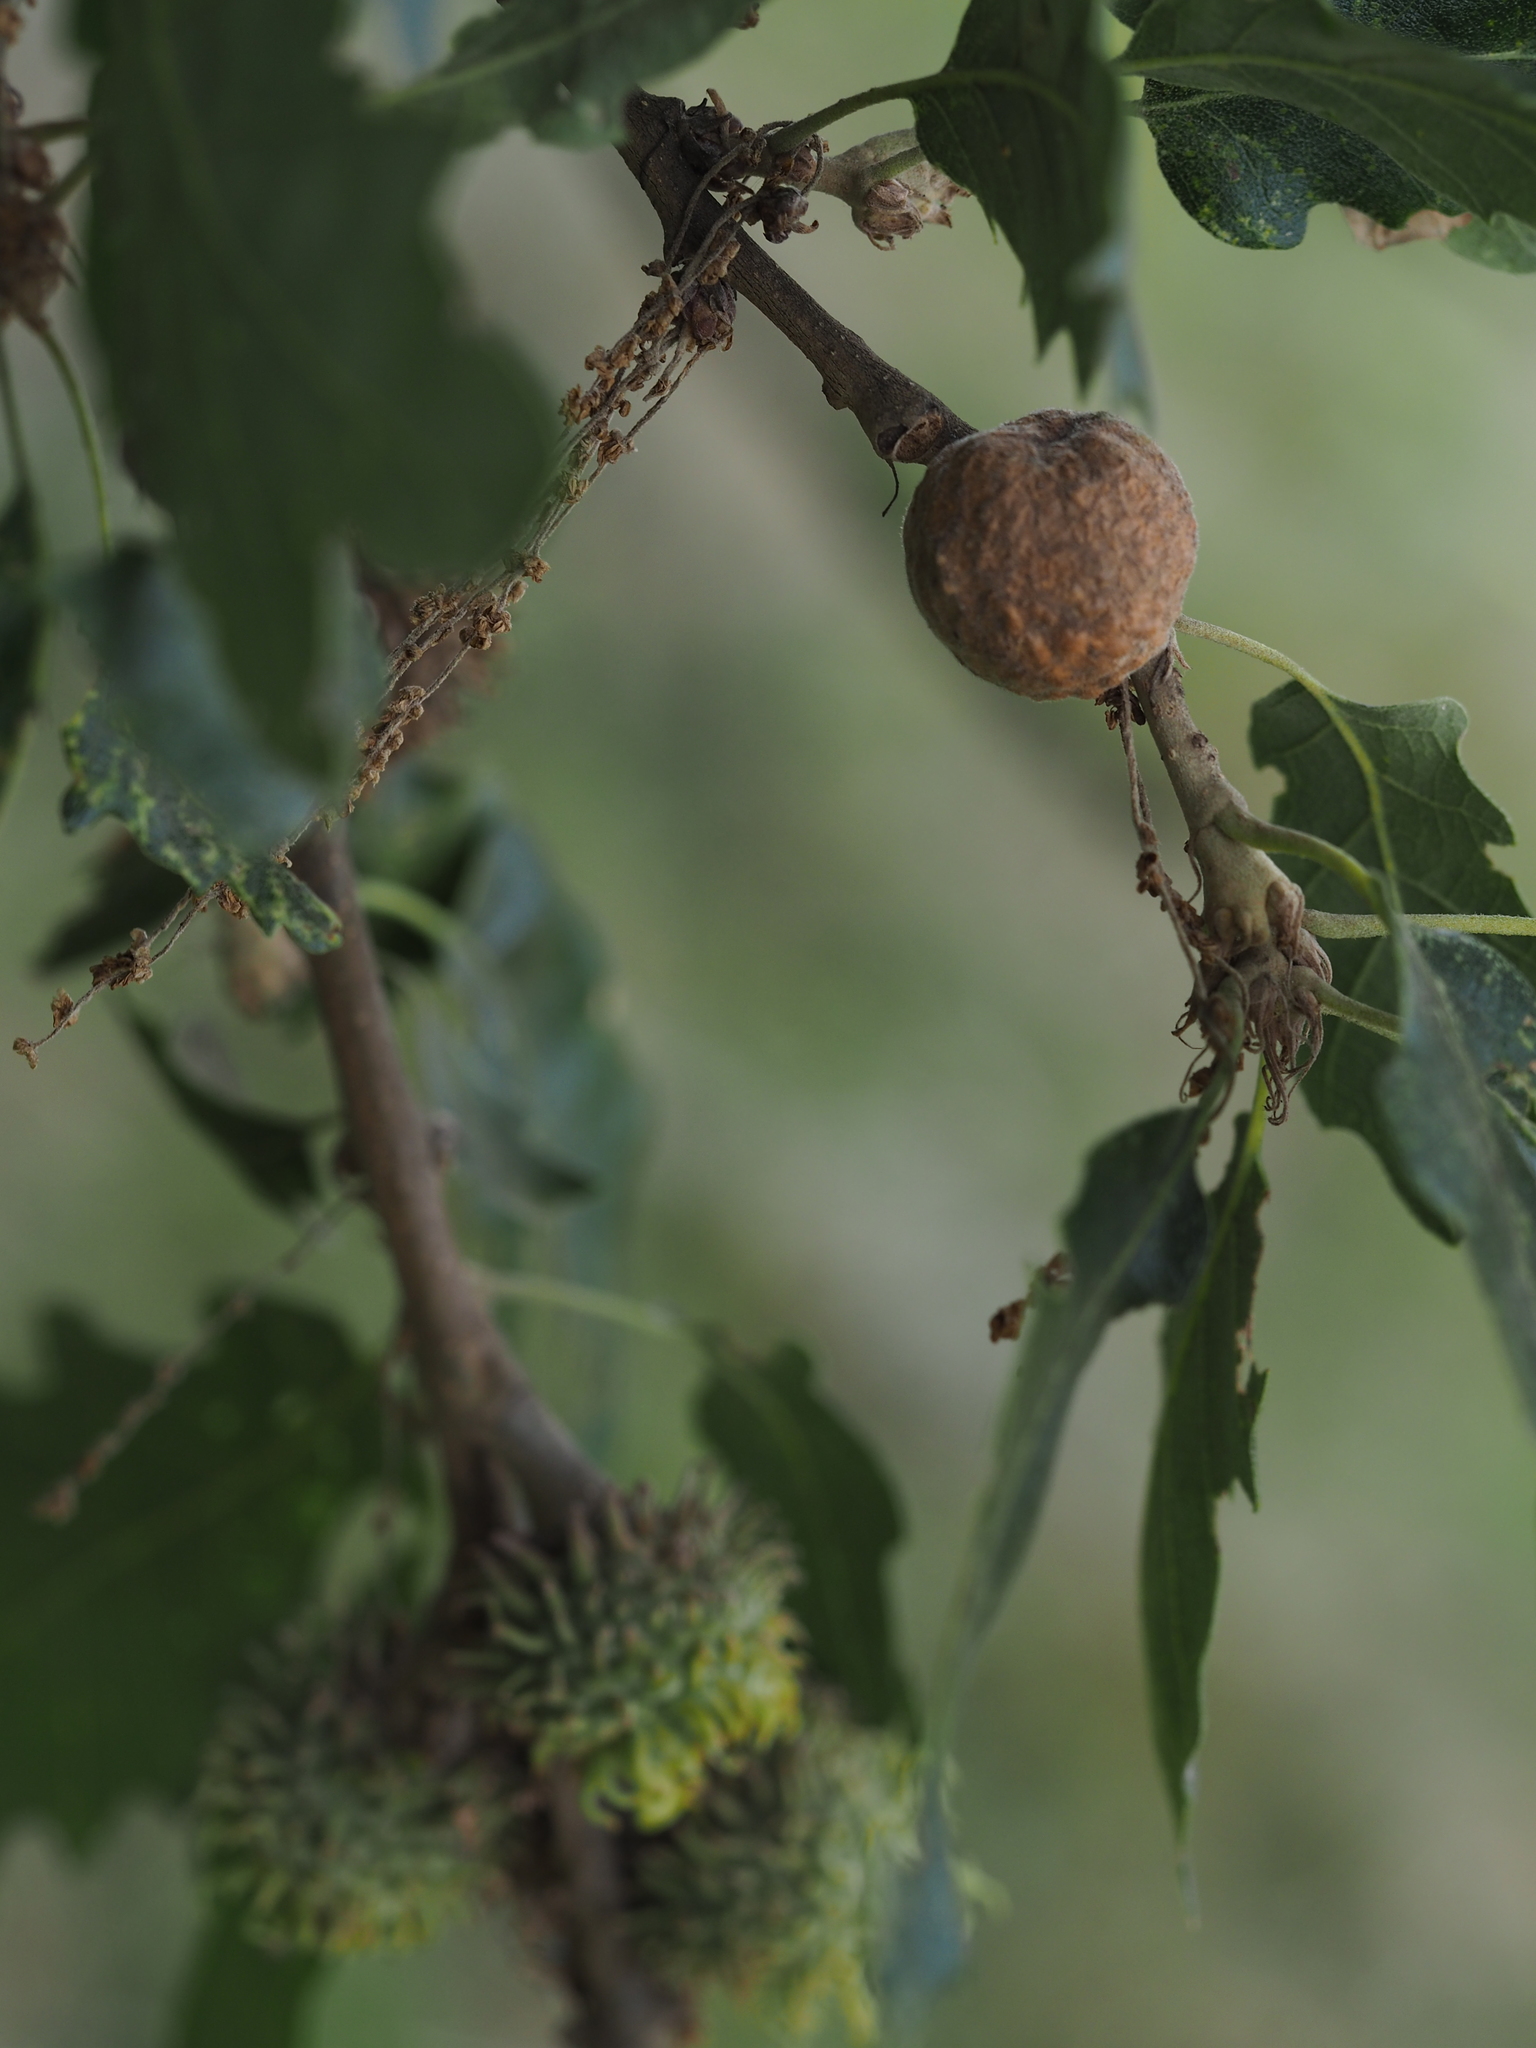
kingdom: Animalia
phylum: Arthropoda
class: Insecta
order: Hymenoptera
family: Cynipidae
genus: Aphelonyx
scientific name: Aphelonyx cerricola
